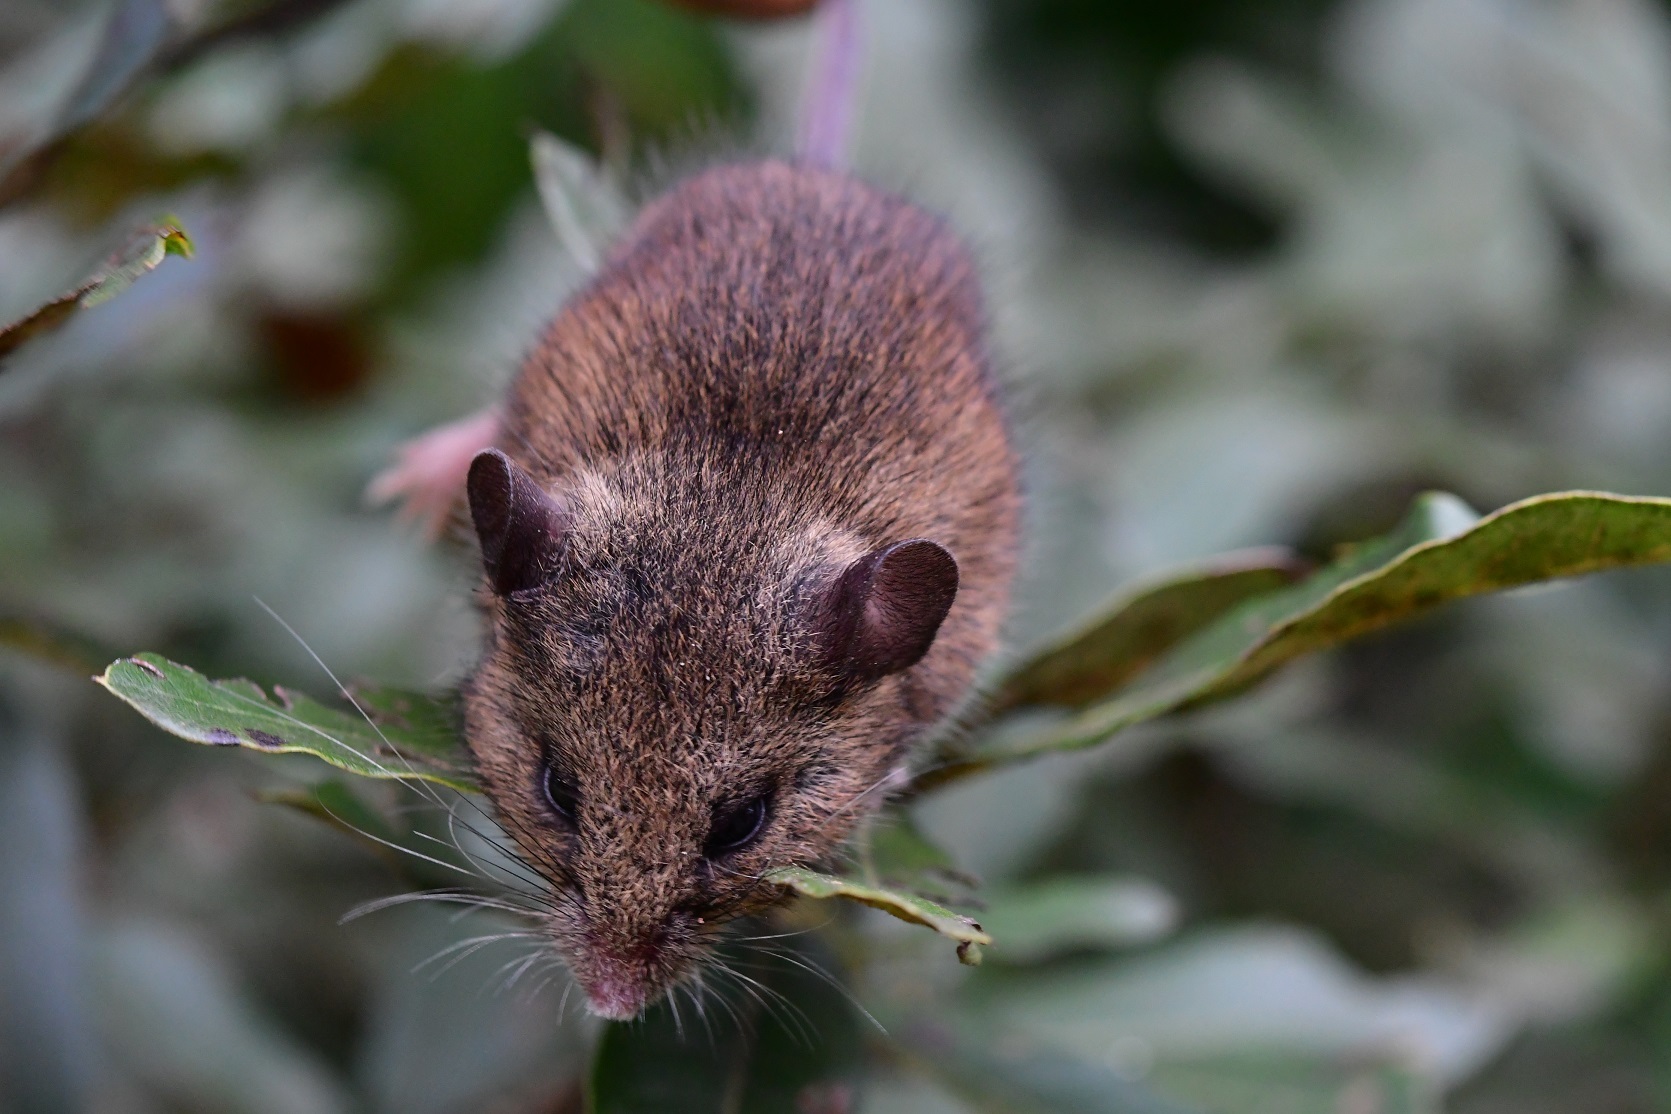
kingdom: Animalia
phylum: Chordata
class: Mammalia
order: Rodentia
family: Cricetidae
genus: Peromyscus
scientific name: Peromyscus beatae
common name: Orizaba deermouse
